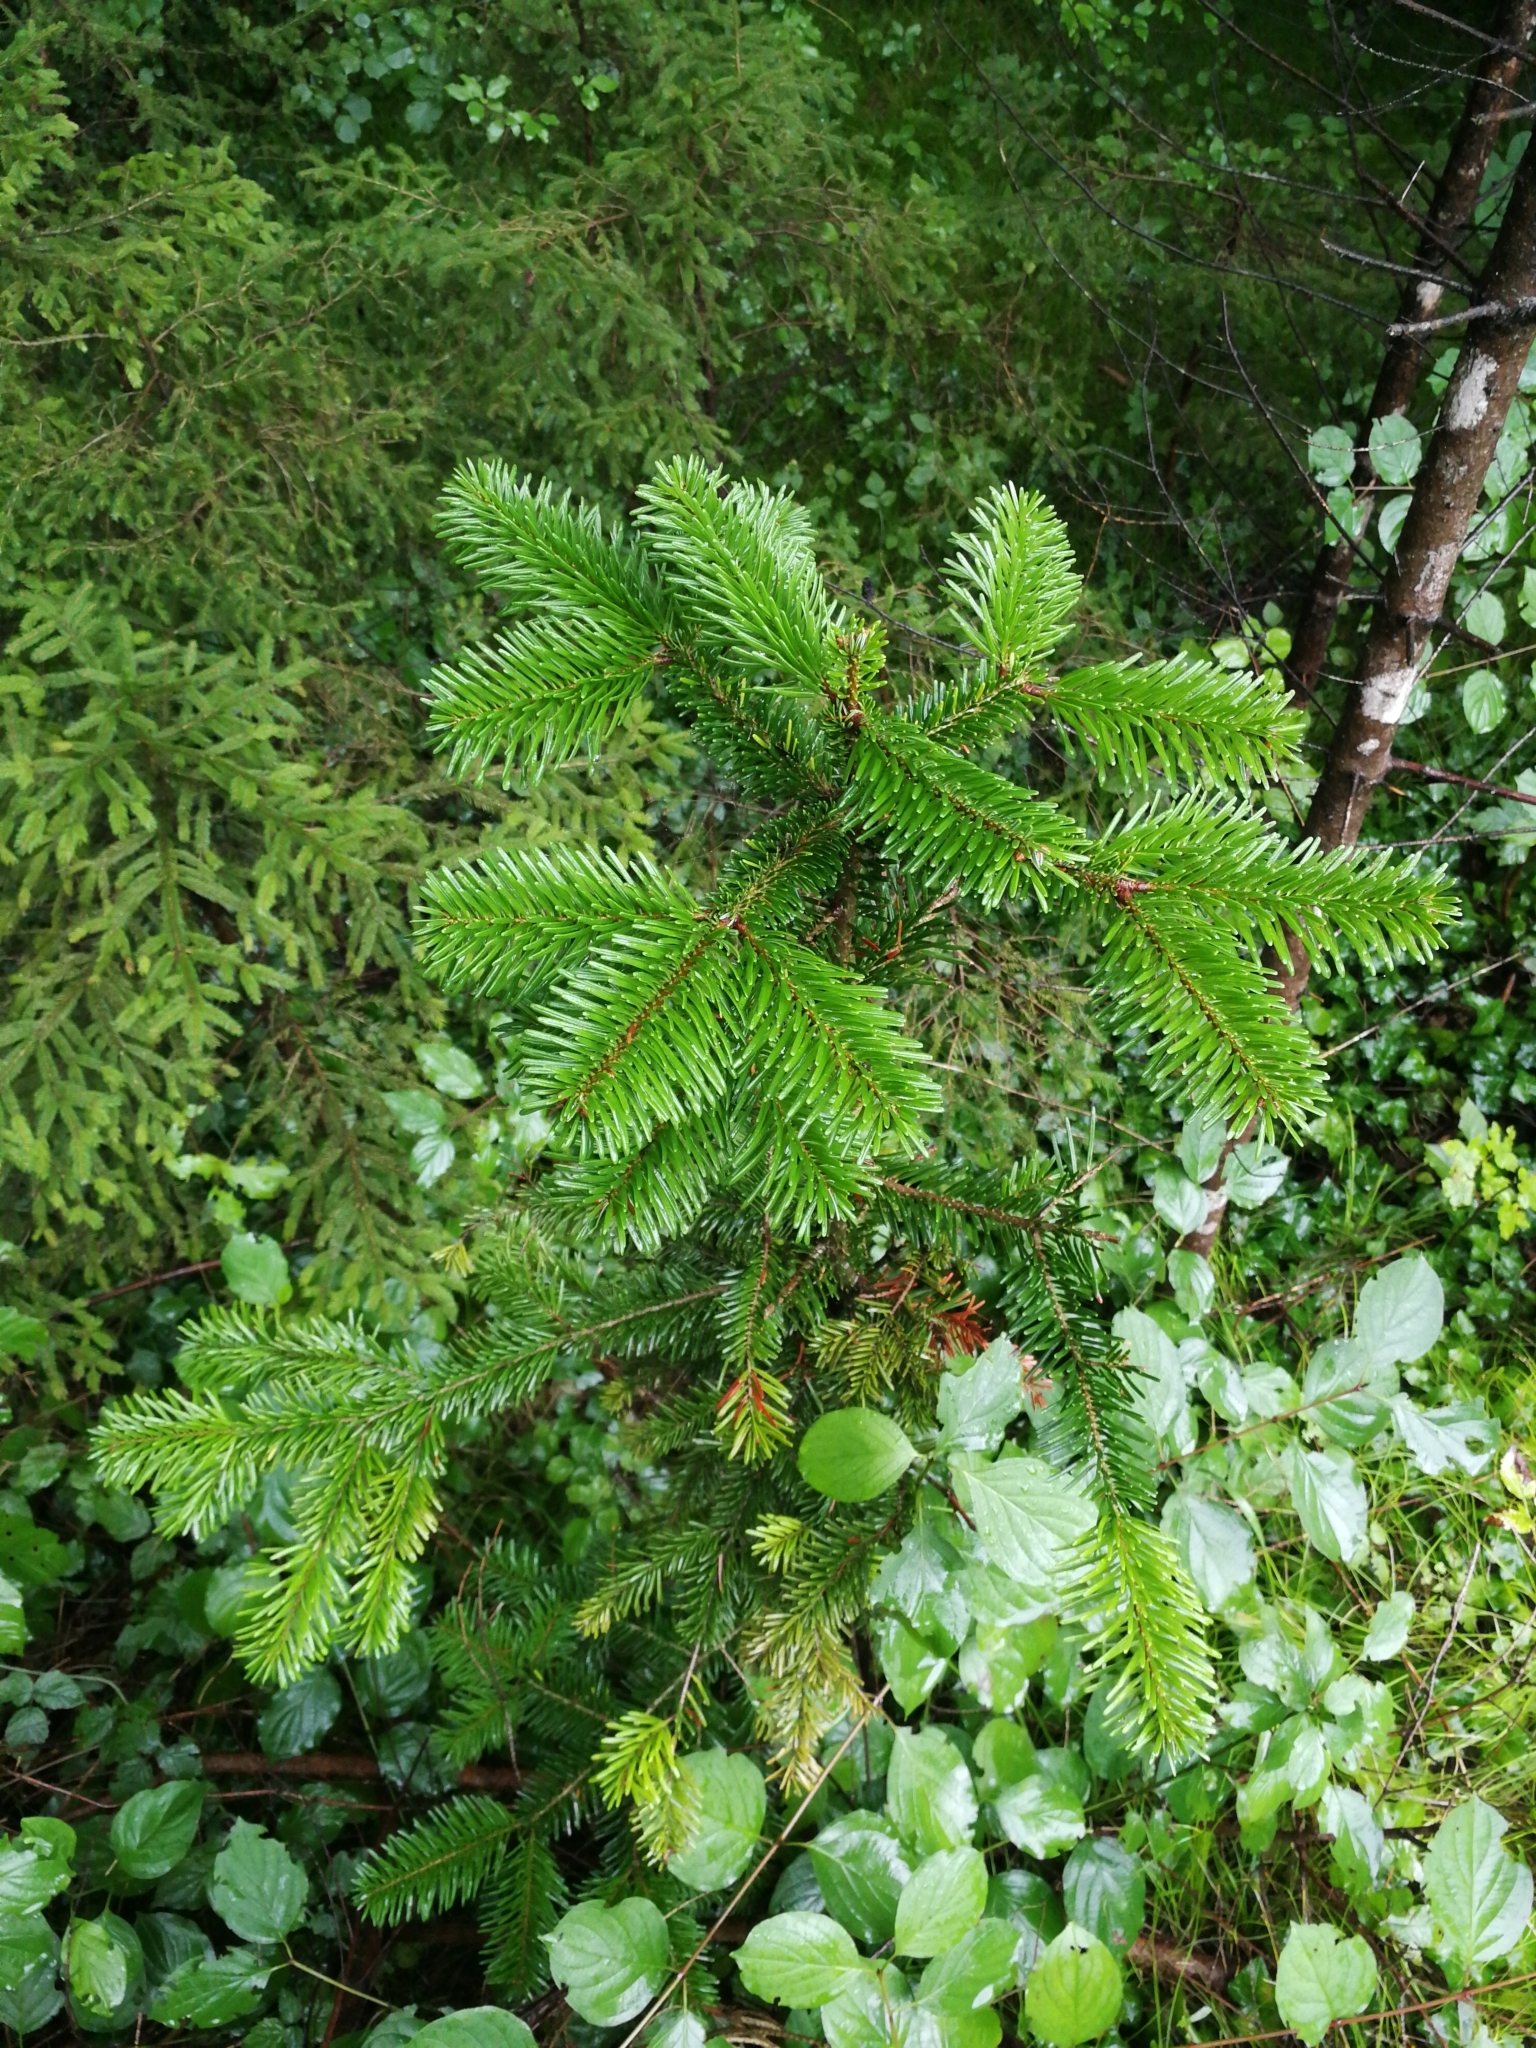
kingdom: Plantae
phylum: Tracheophyta
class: Pinopsida
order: Pinales
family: Pinaceae
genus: Abies
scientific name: Abies alba
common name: Silver fir
